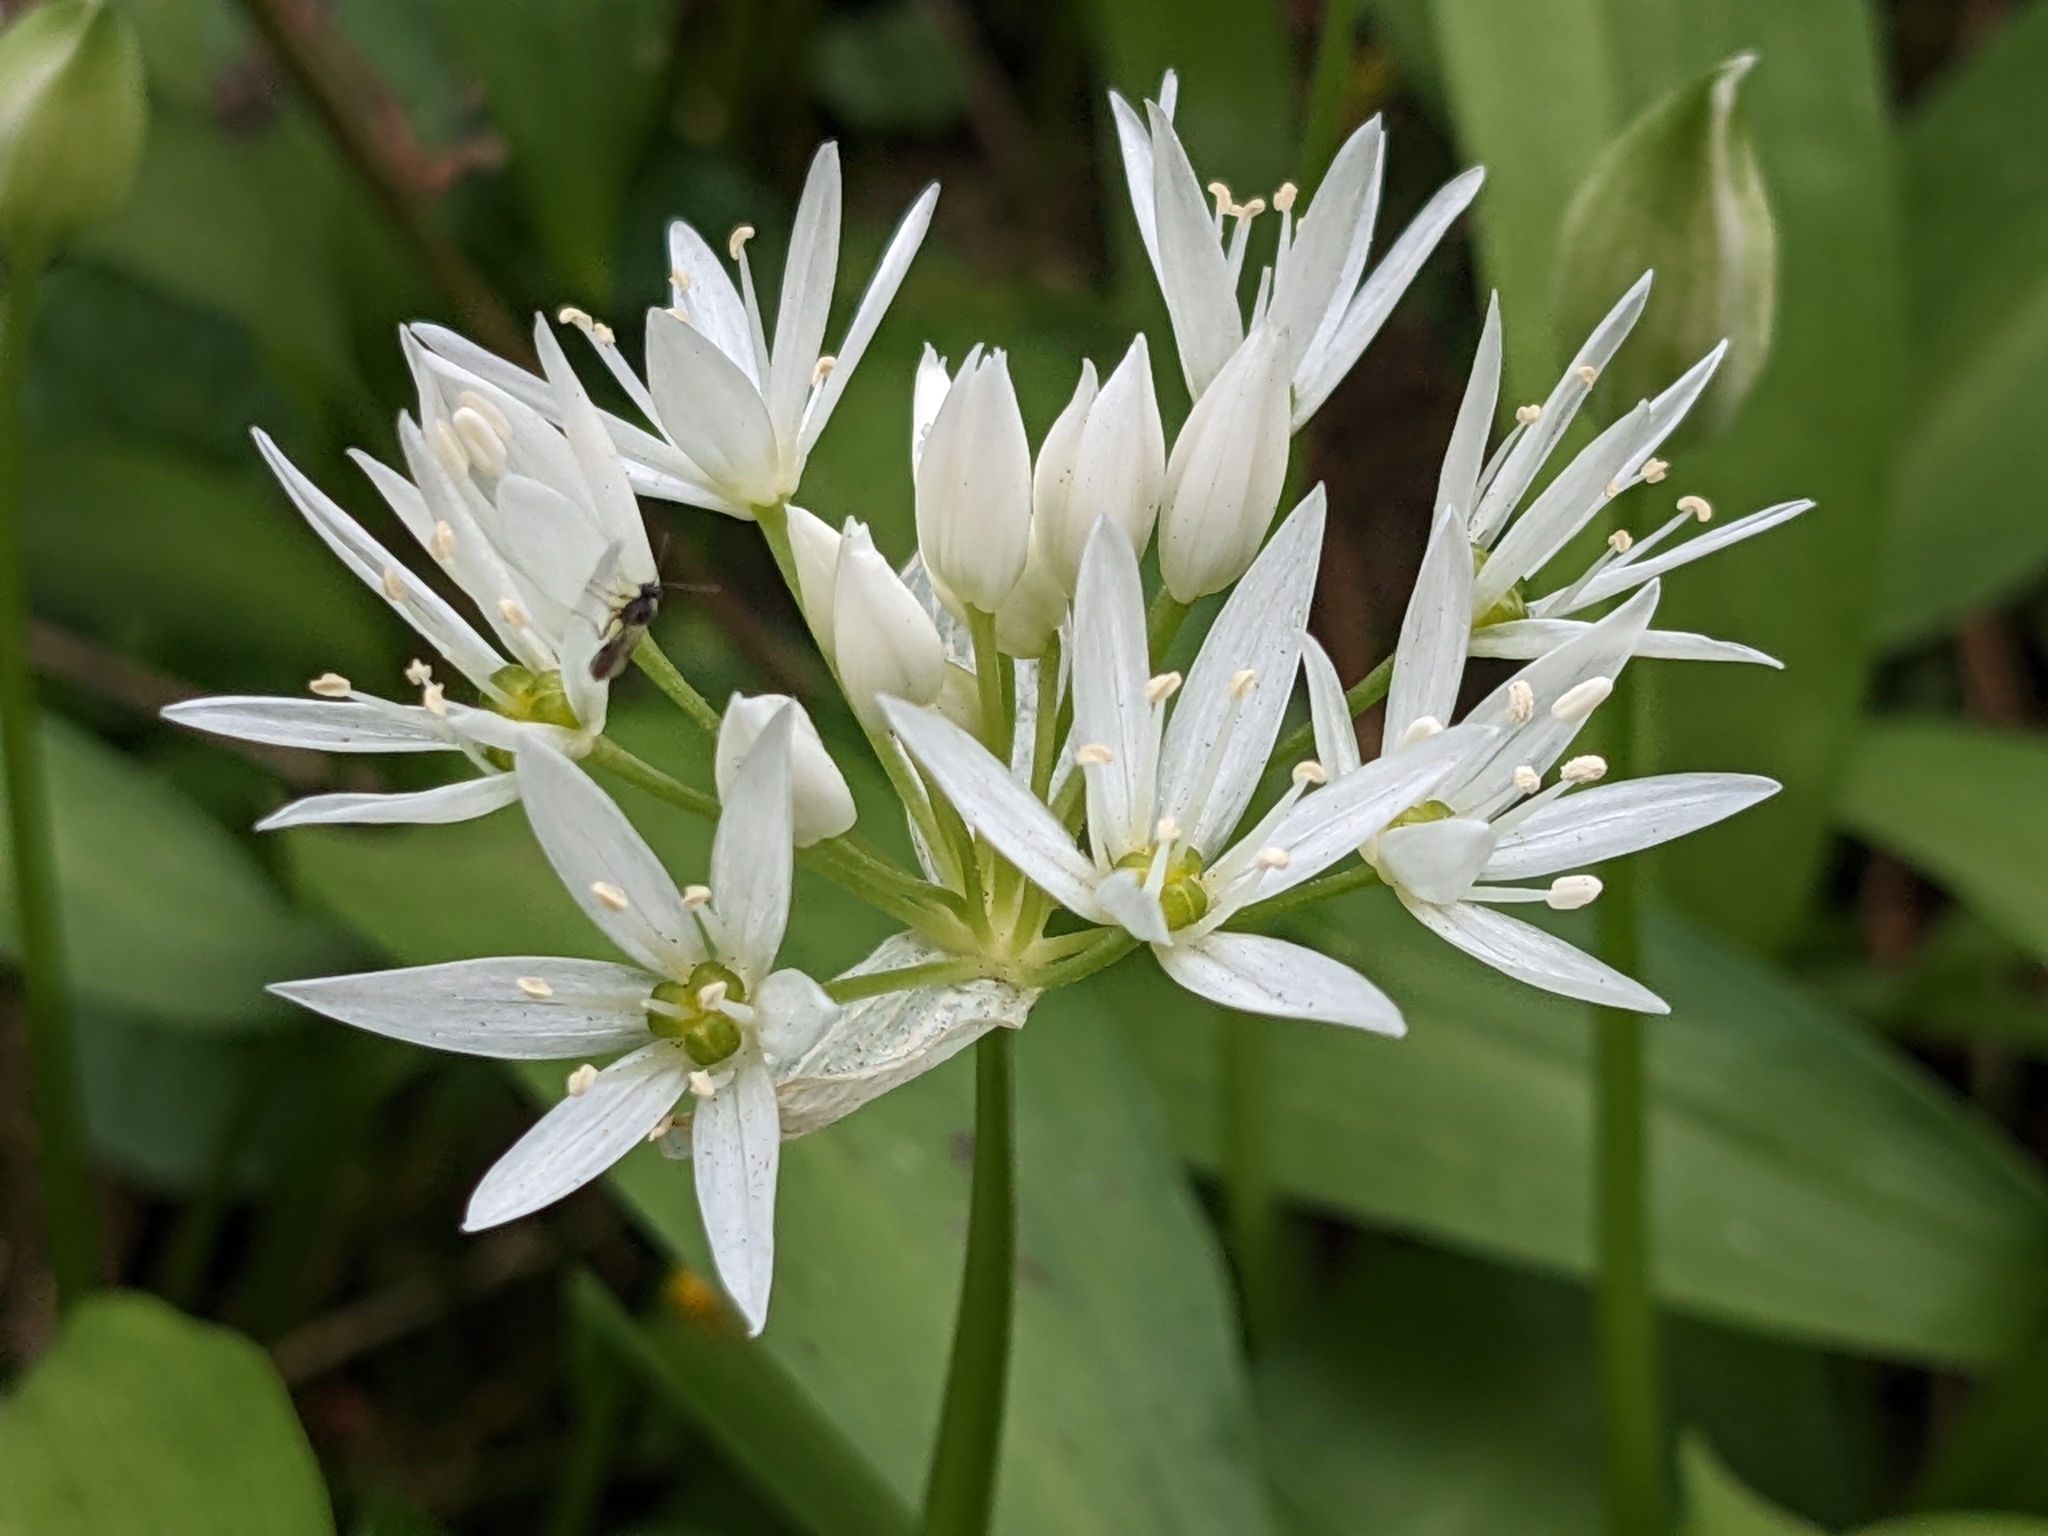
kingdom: Plantae
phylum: Tracheophyta
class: Liliopsida
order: Asparagales
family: Amaryllidaceae
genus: Allium
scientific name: Allium ursinum
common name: Ramsons
